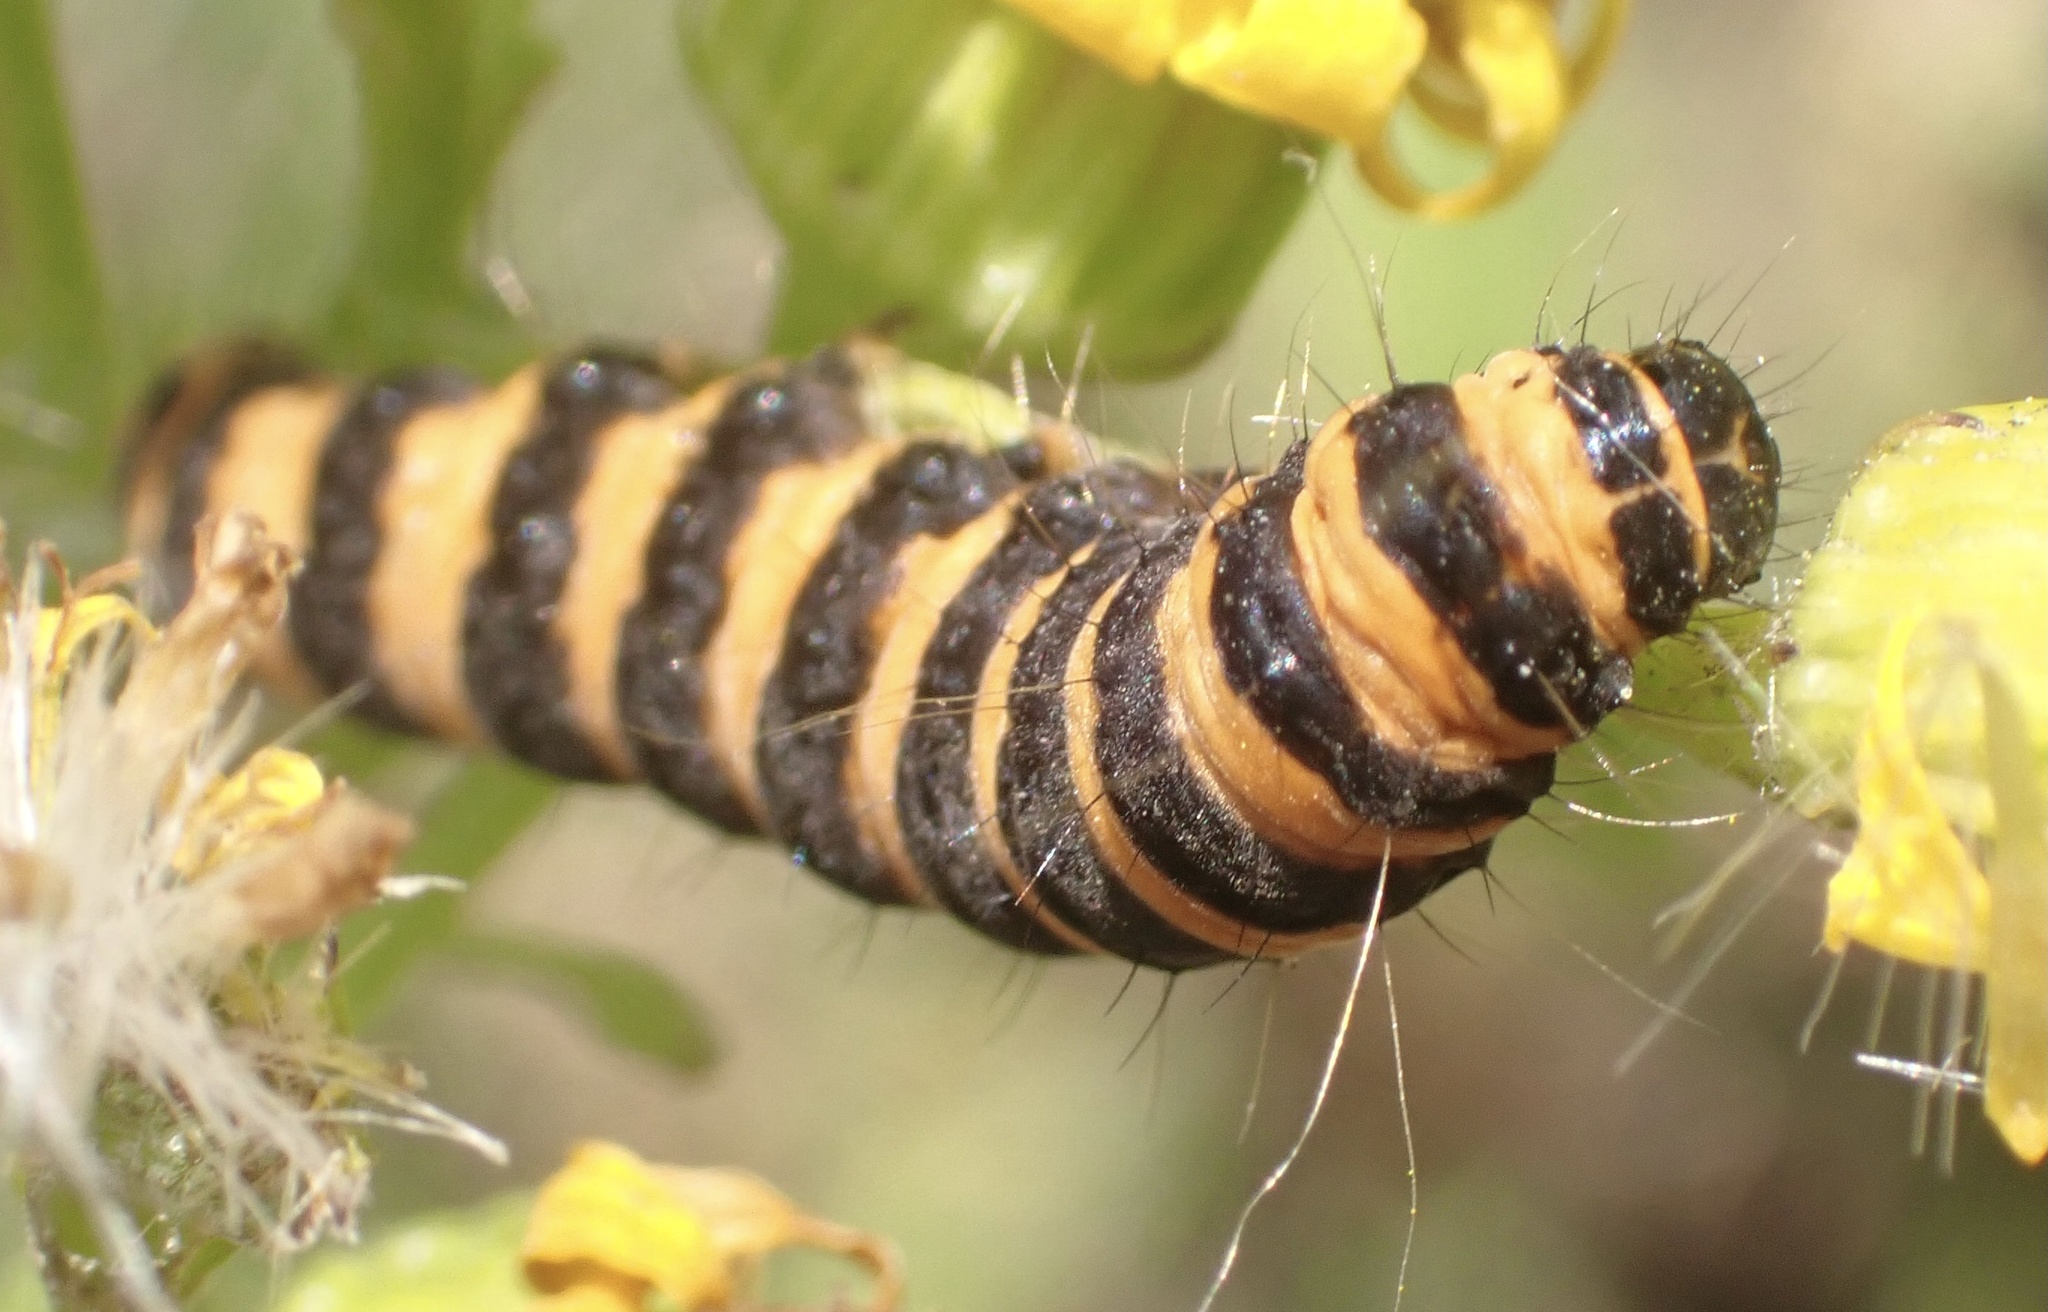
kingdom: Animalia
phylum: Arthropoda
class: Insecta
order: Lepidoptera
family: Erebidae
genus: Tyria
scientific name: Tyria jacobaeae
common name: Cinnabar
